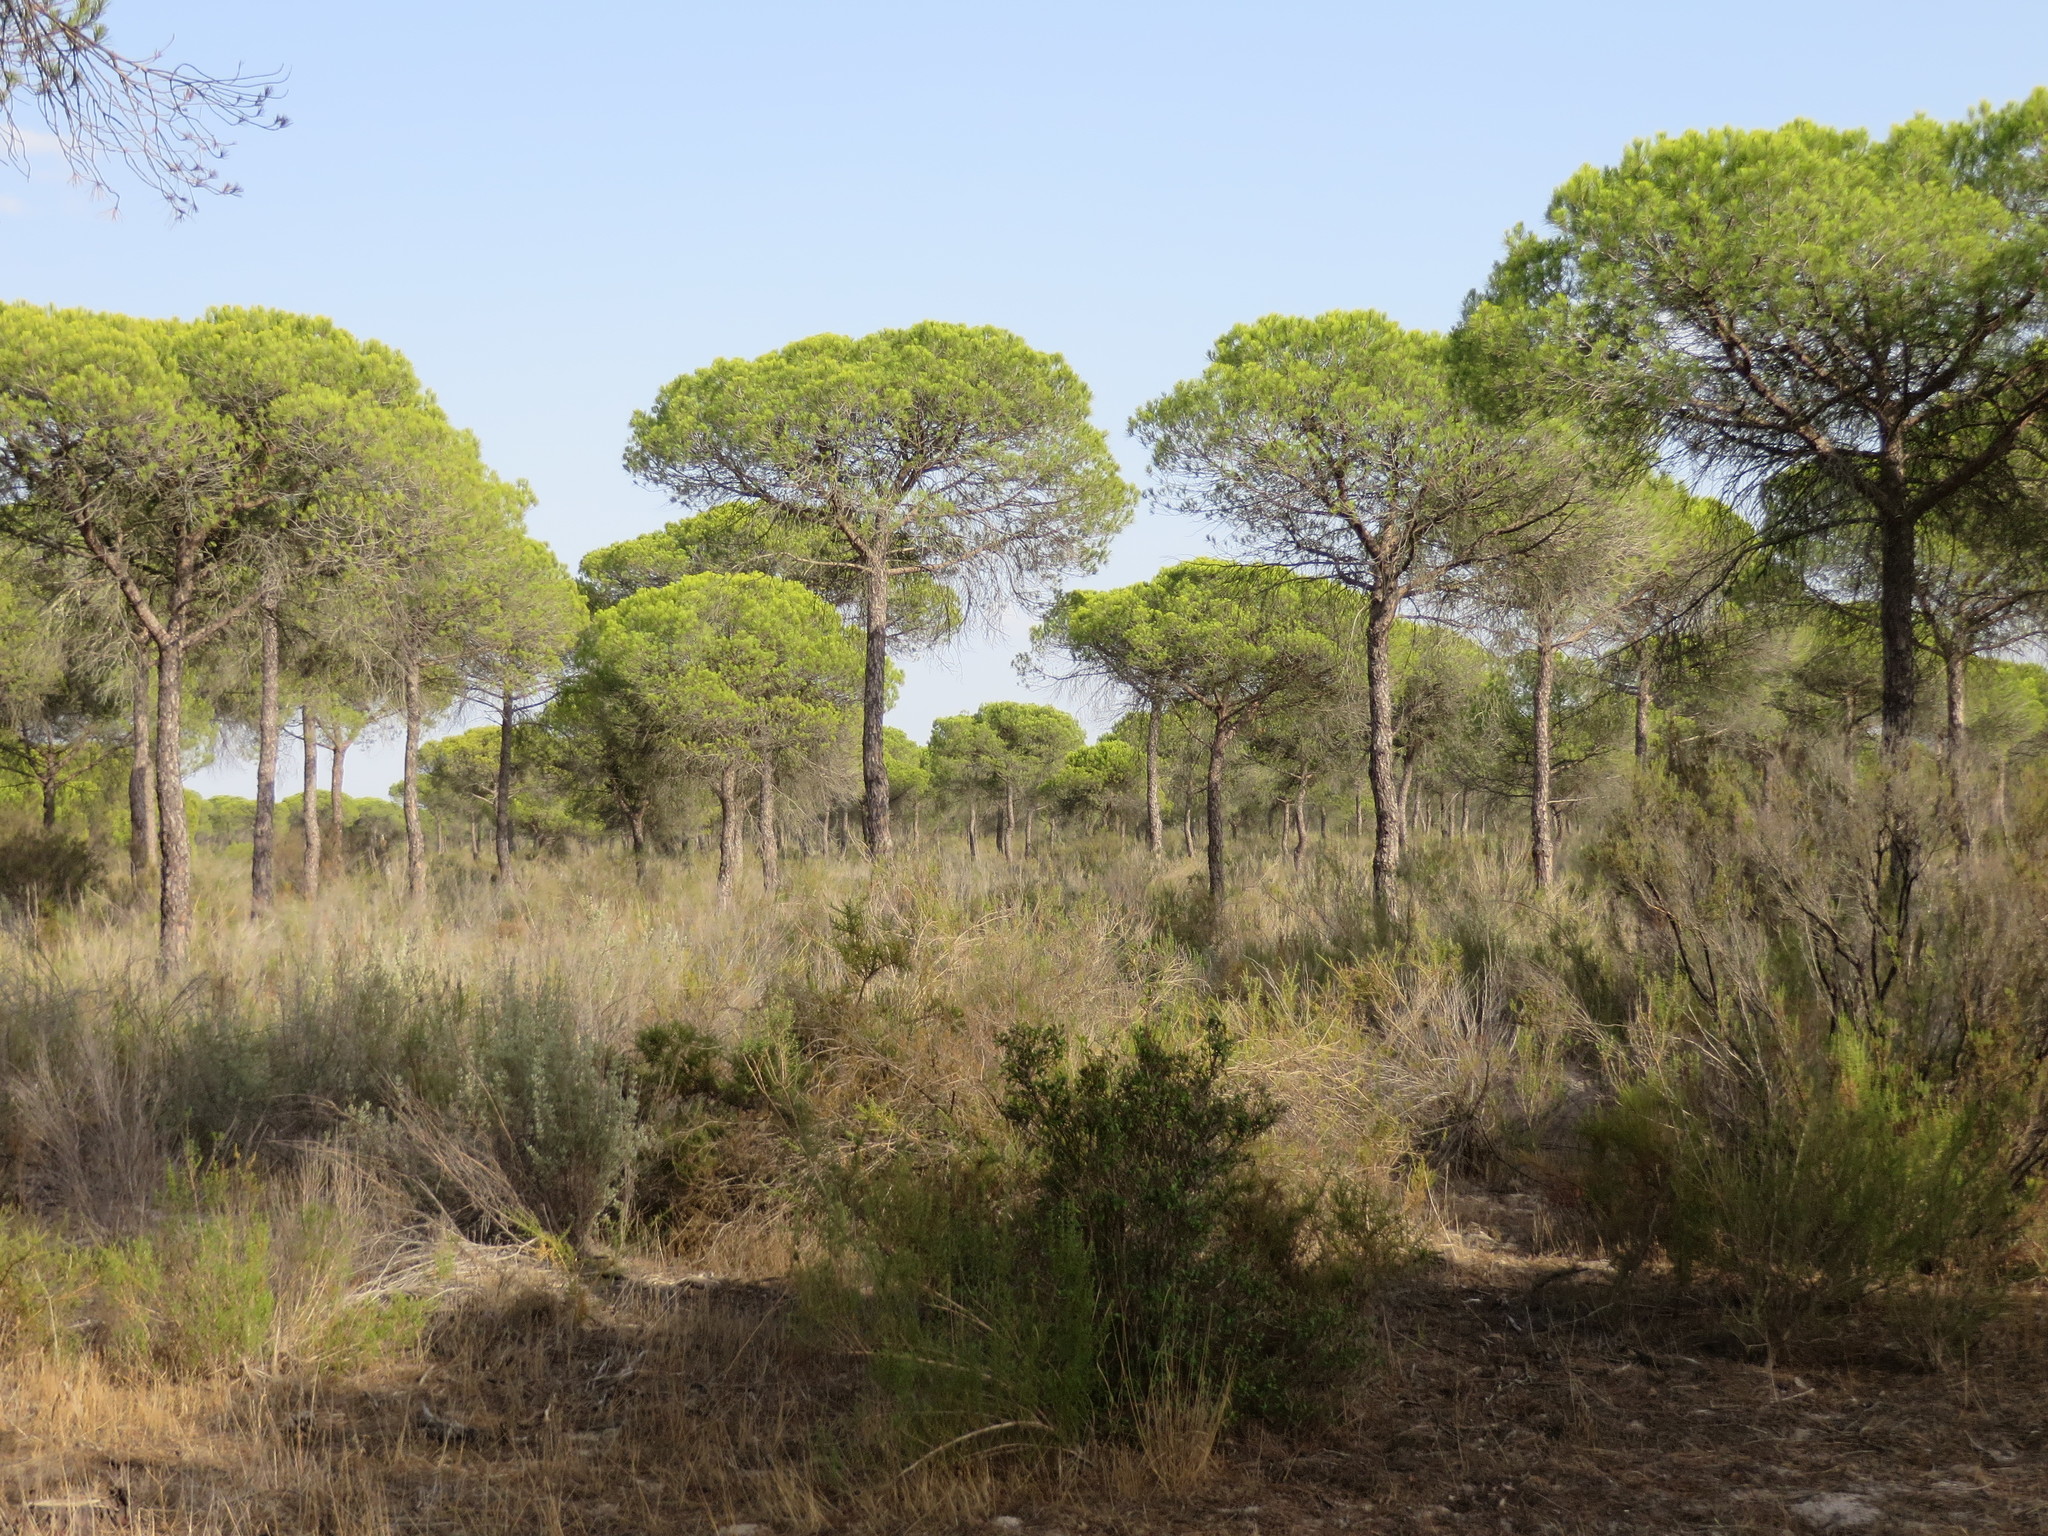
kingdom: Plantae
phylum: Tracheophyta
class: Pinopsida
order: Pinales
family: Pinaceae
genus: Pinus
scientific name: Pinus pinea
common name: Italian stone pine
